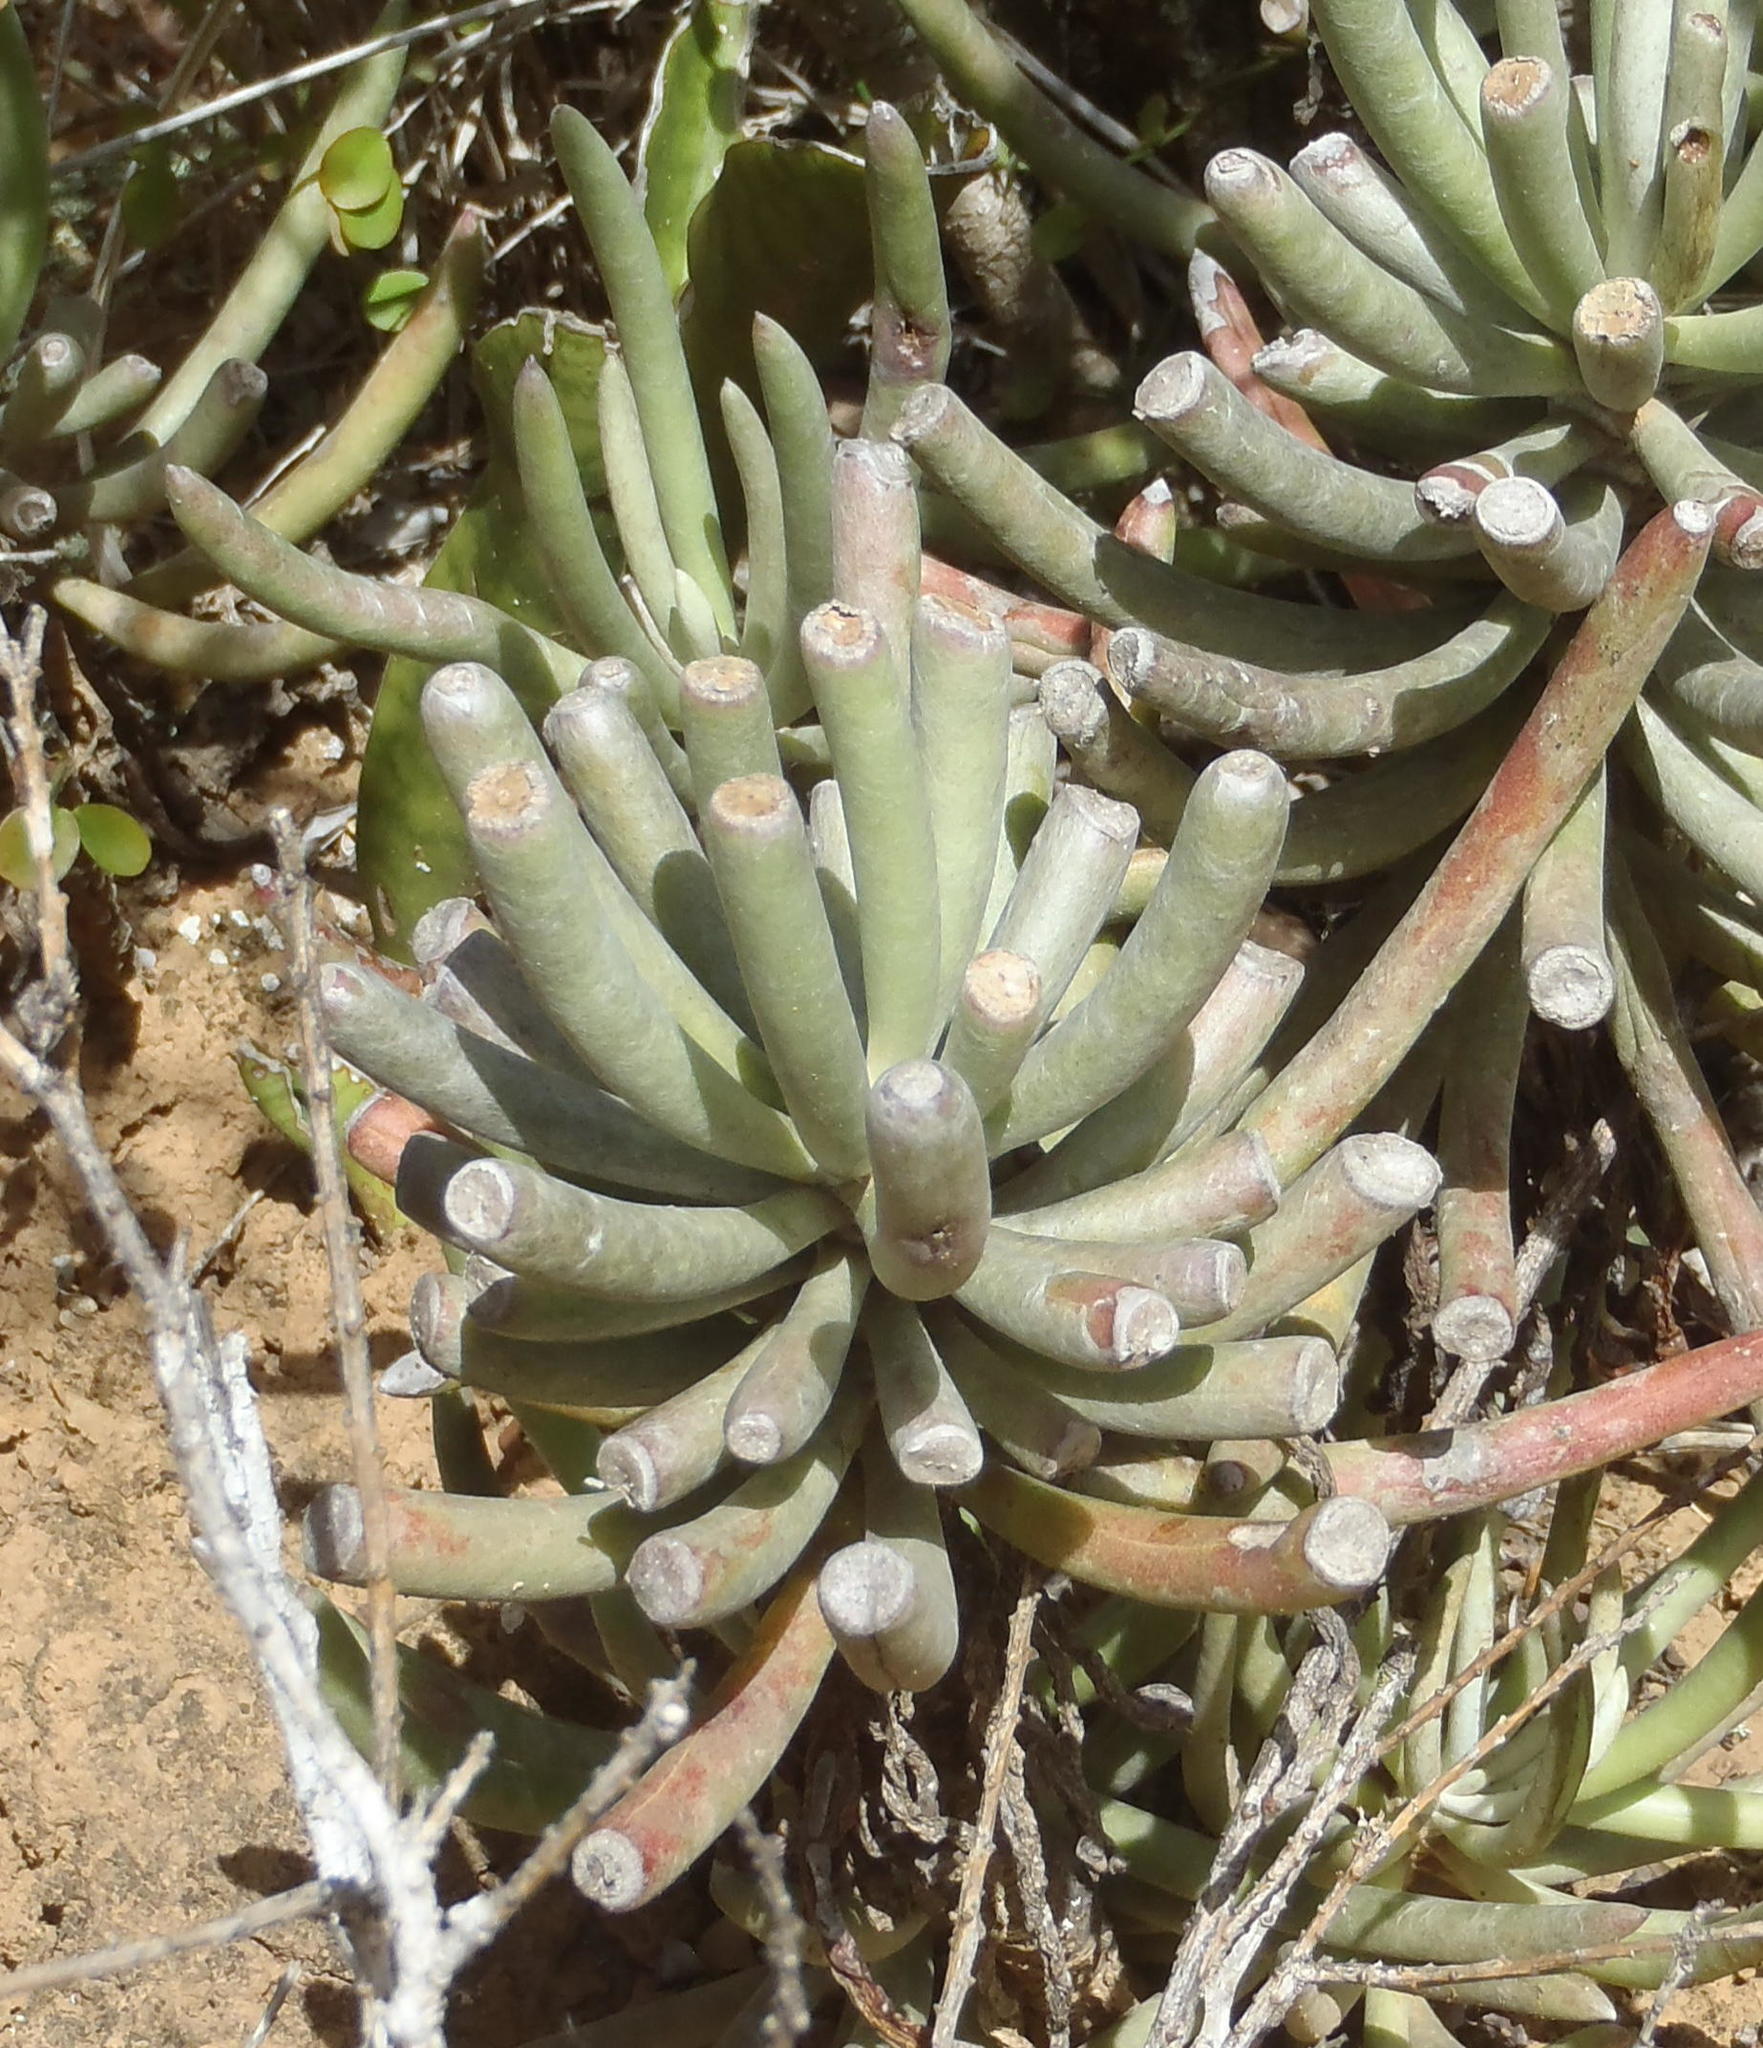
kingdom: Plantae
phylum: Tracheophyta
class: Magnoliopsida
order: Asterales
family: Asteraceae
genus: Caputia
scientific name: Caputia pyramidata
